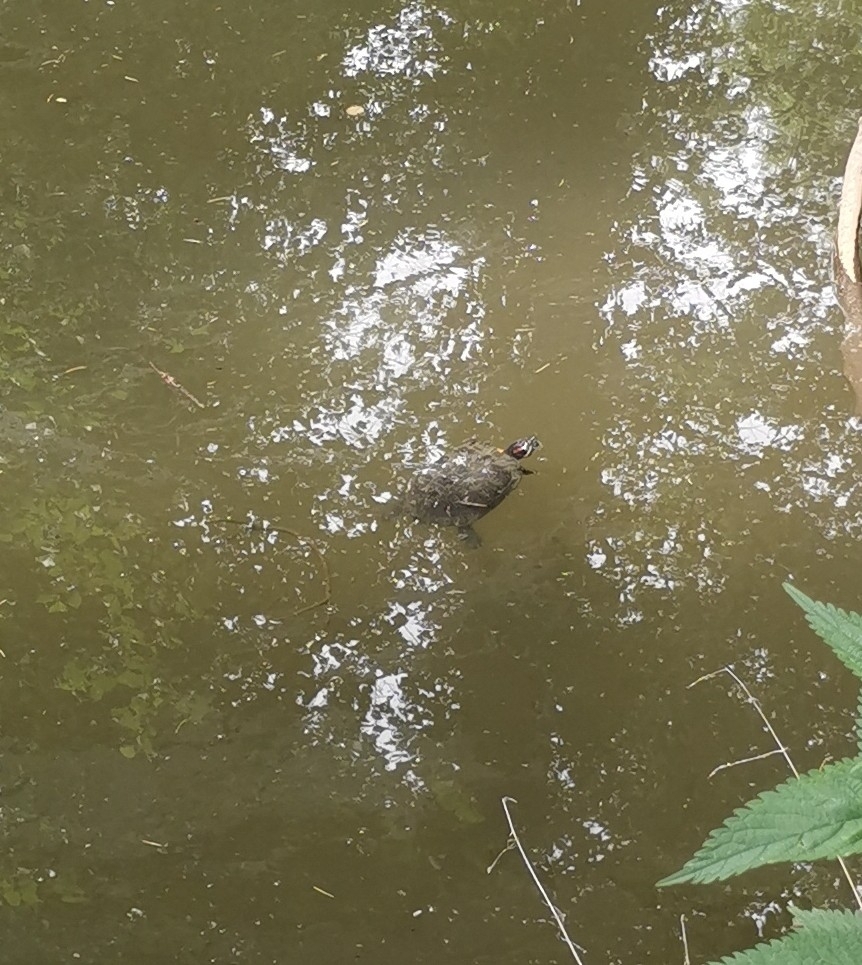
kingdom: Animalia
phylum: Chordata
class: Testudines
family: Emydidae
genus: Trachemys
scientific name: Trachemys scripta
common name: Slider
